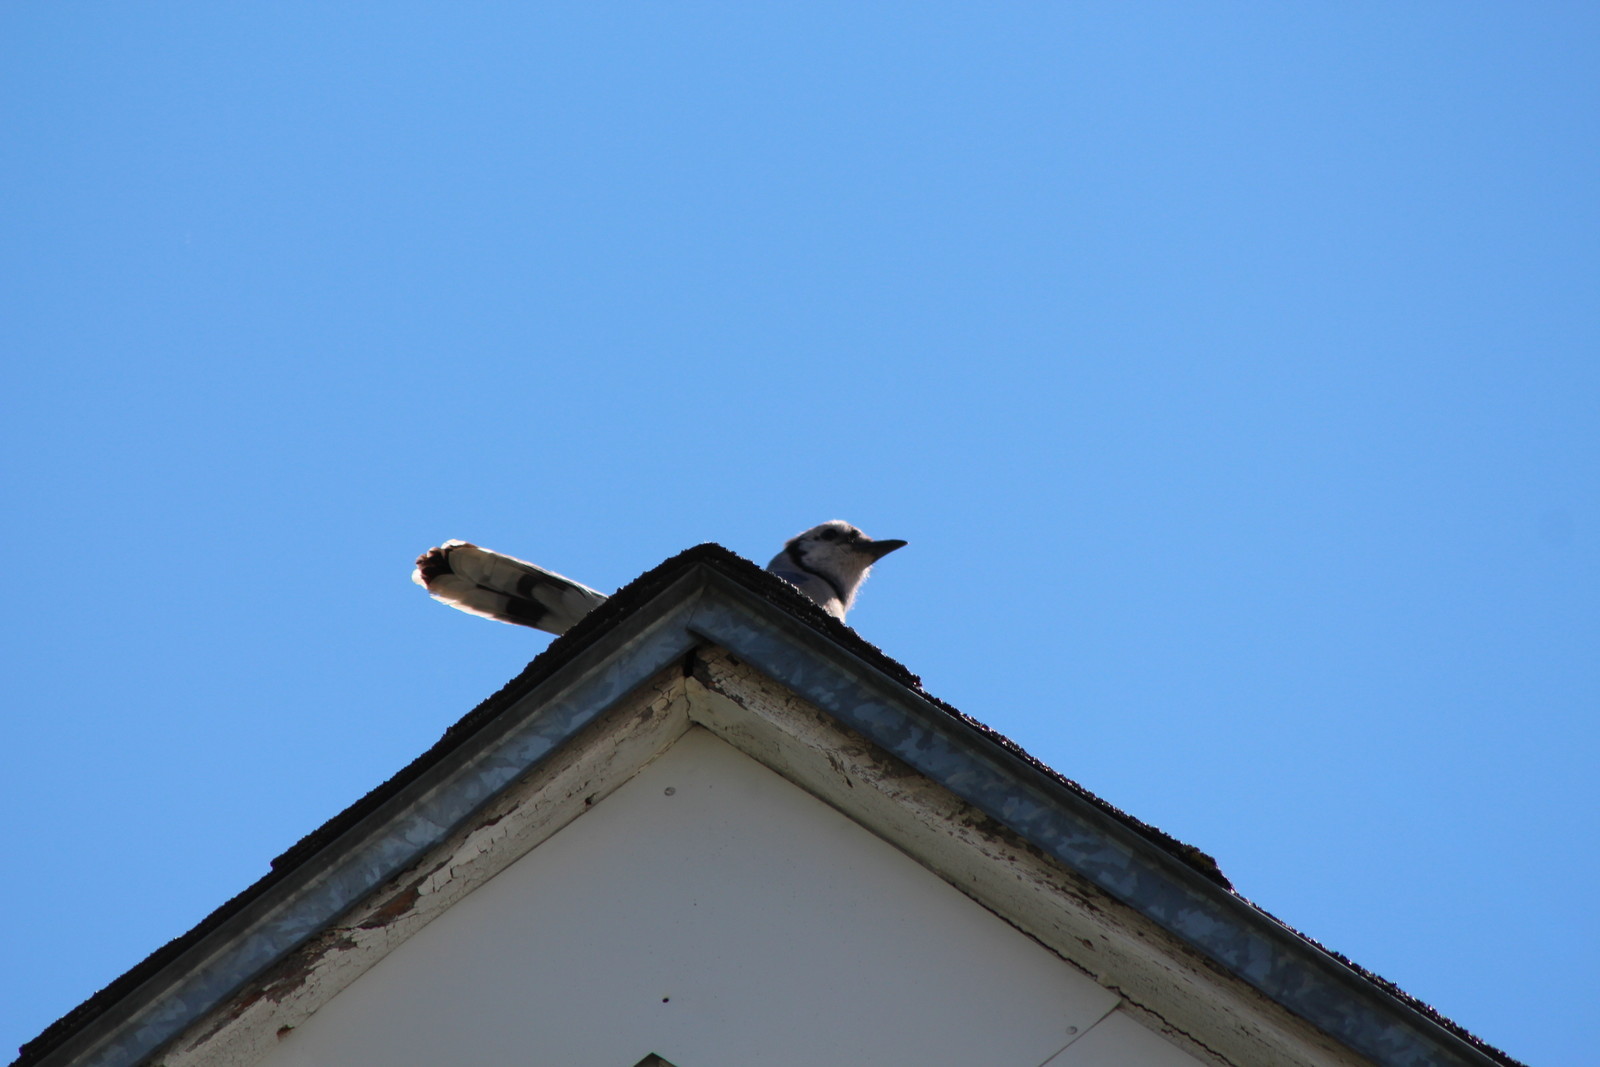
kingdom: Animalia
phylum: Chordata
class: Aves
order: Passeriformes
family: Corvidae
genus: Cyanocitta
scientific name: Cyanocitta cristata
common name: Blue jay
